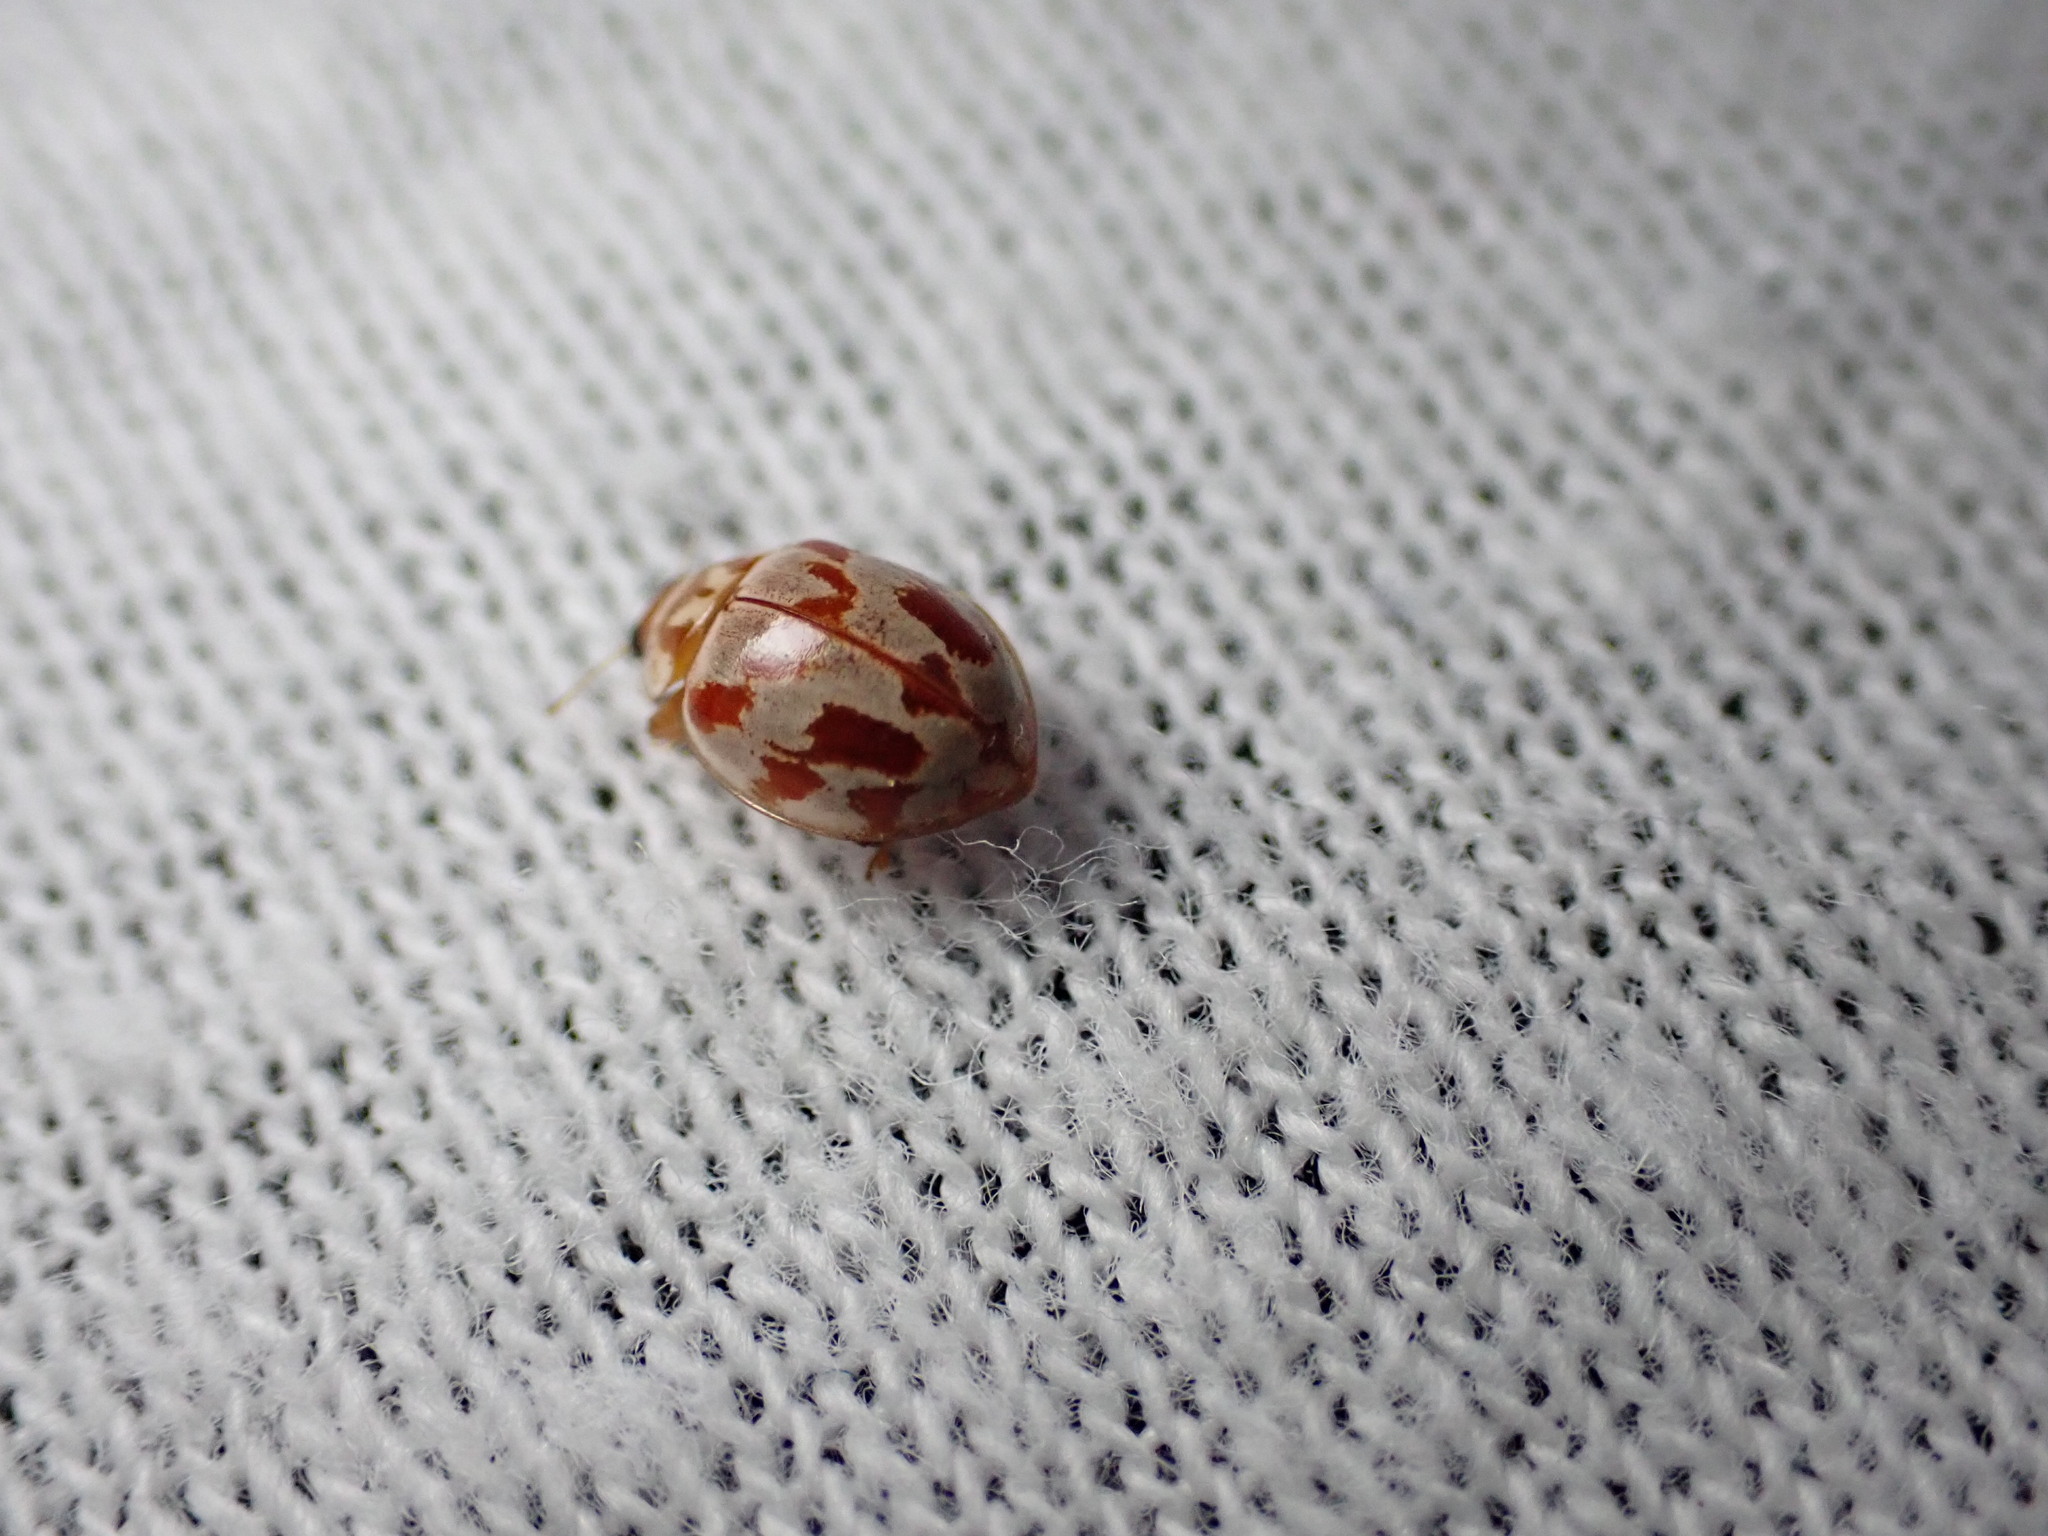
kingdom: Animalia
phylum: Arthropoda
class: Insecta
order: Coleoptera
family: Coccinellidae
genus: Myrrha
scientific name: Myrrha octodecimguttata
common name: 18-spot ladybird
